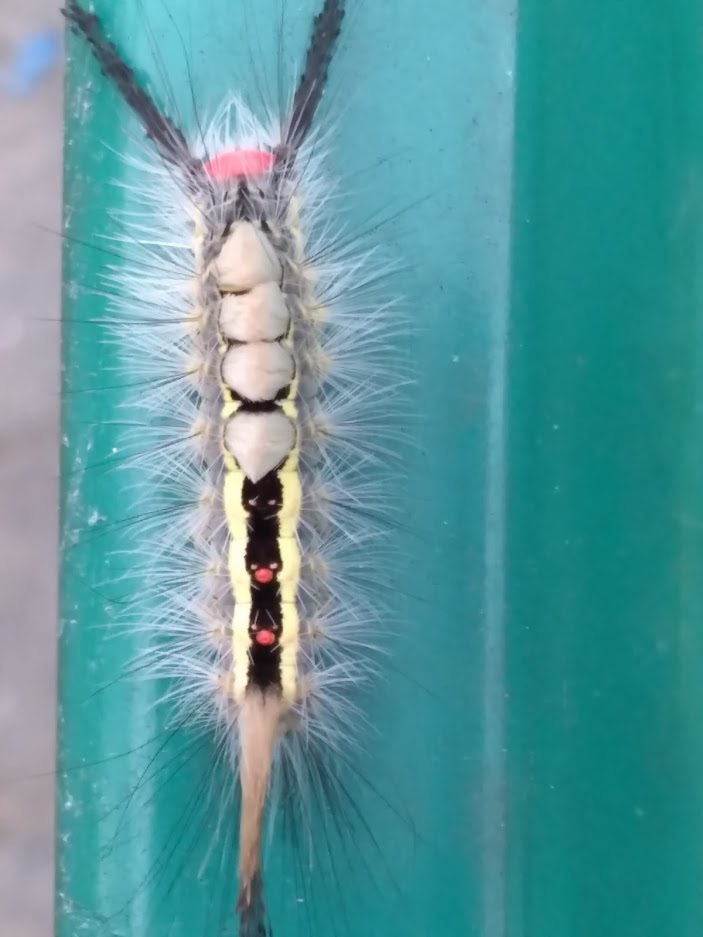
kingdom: Animalia
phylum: Arthropoda
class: Insecta
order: Lepidoptera
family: Erebidae
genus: Orgyia
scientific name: Orgyia leucostigma
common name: White-marked tussock moth
